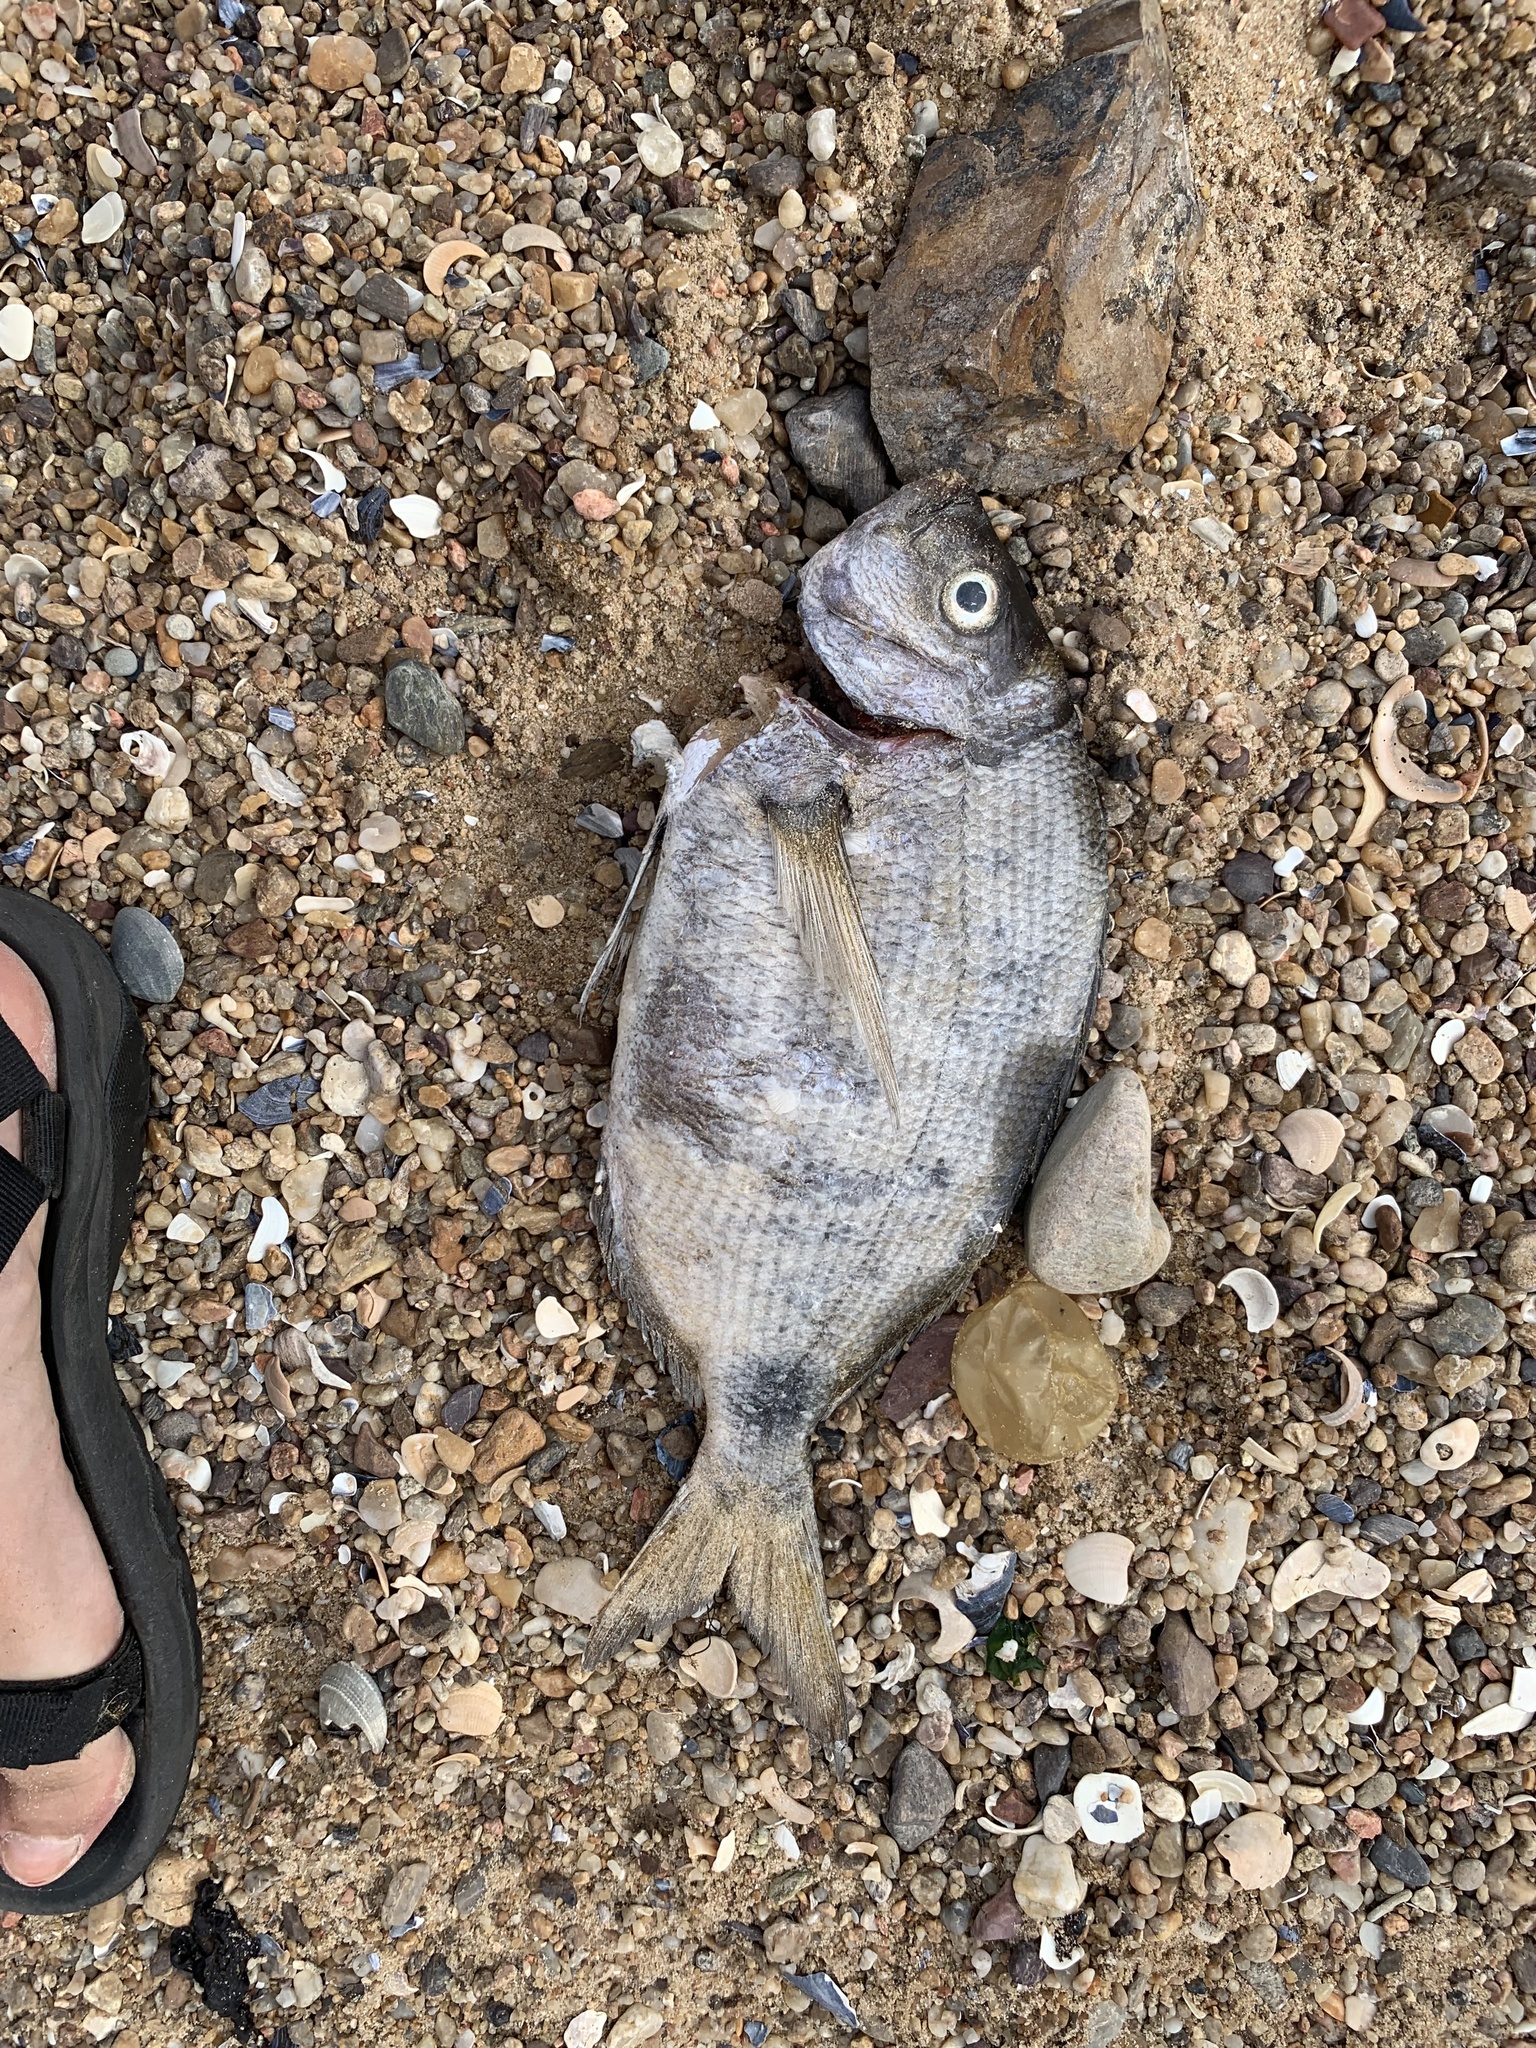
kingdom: Animalia
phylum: Chordata
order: Perciformes
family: Sparidae
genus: Diplodus
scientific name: Diplodus argenteus
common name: South-american silver porgy
